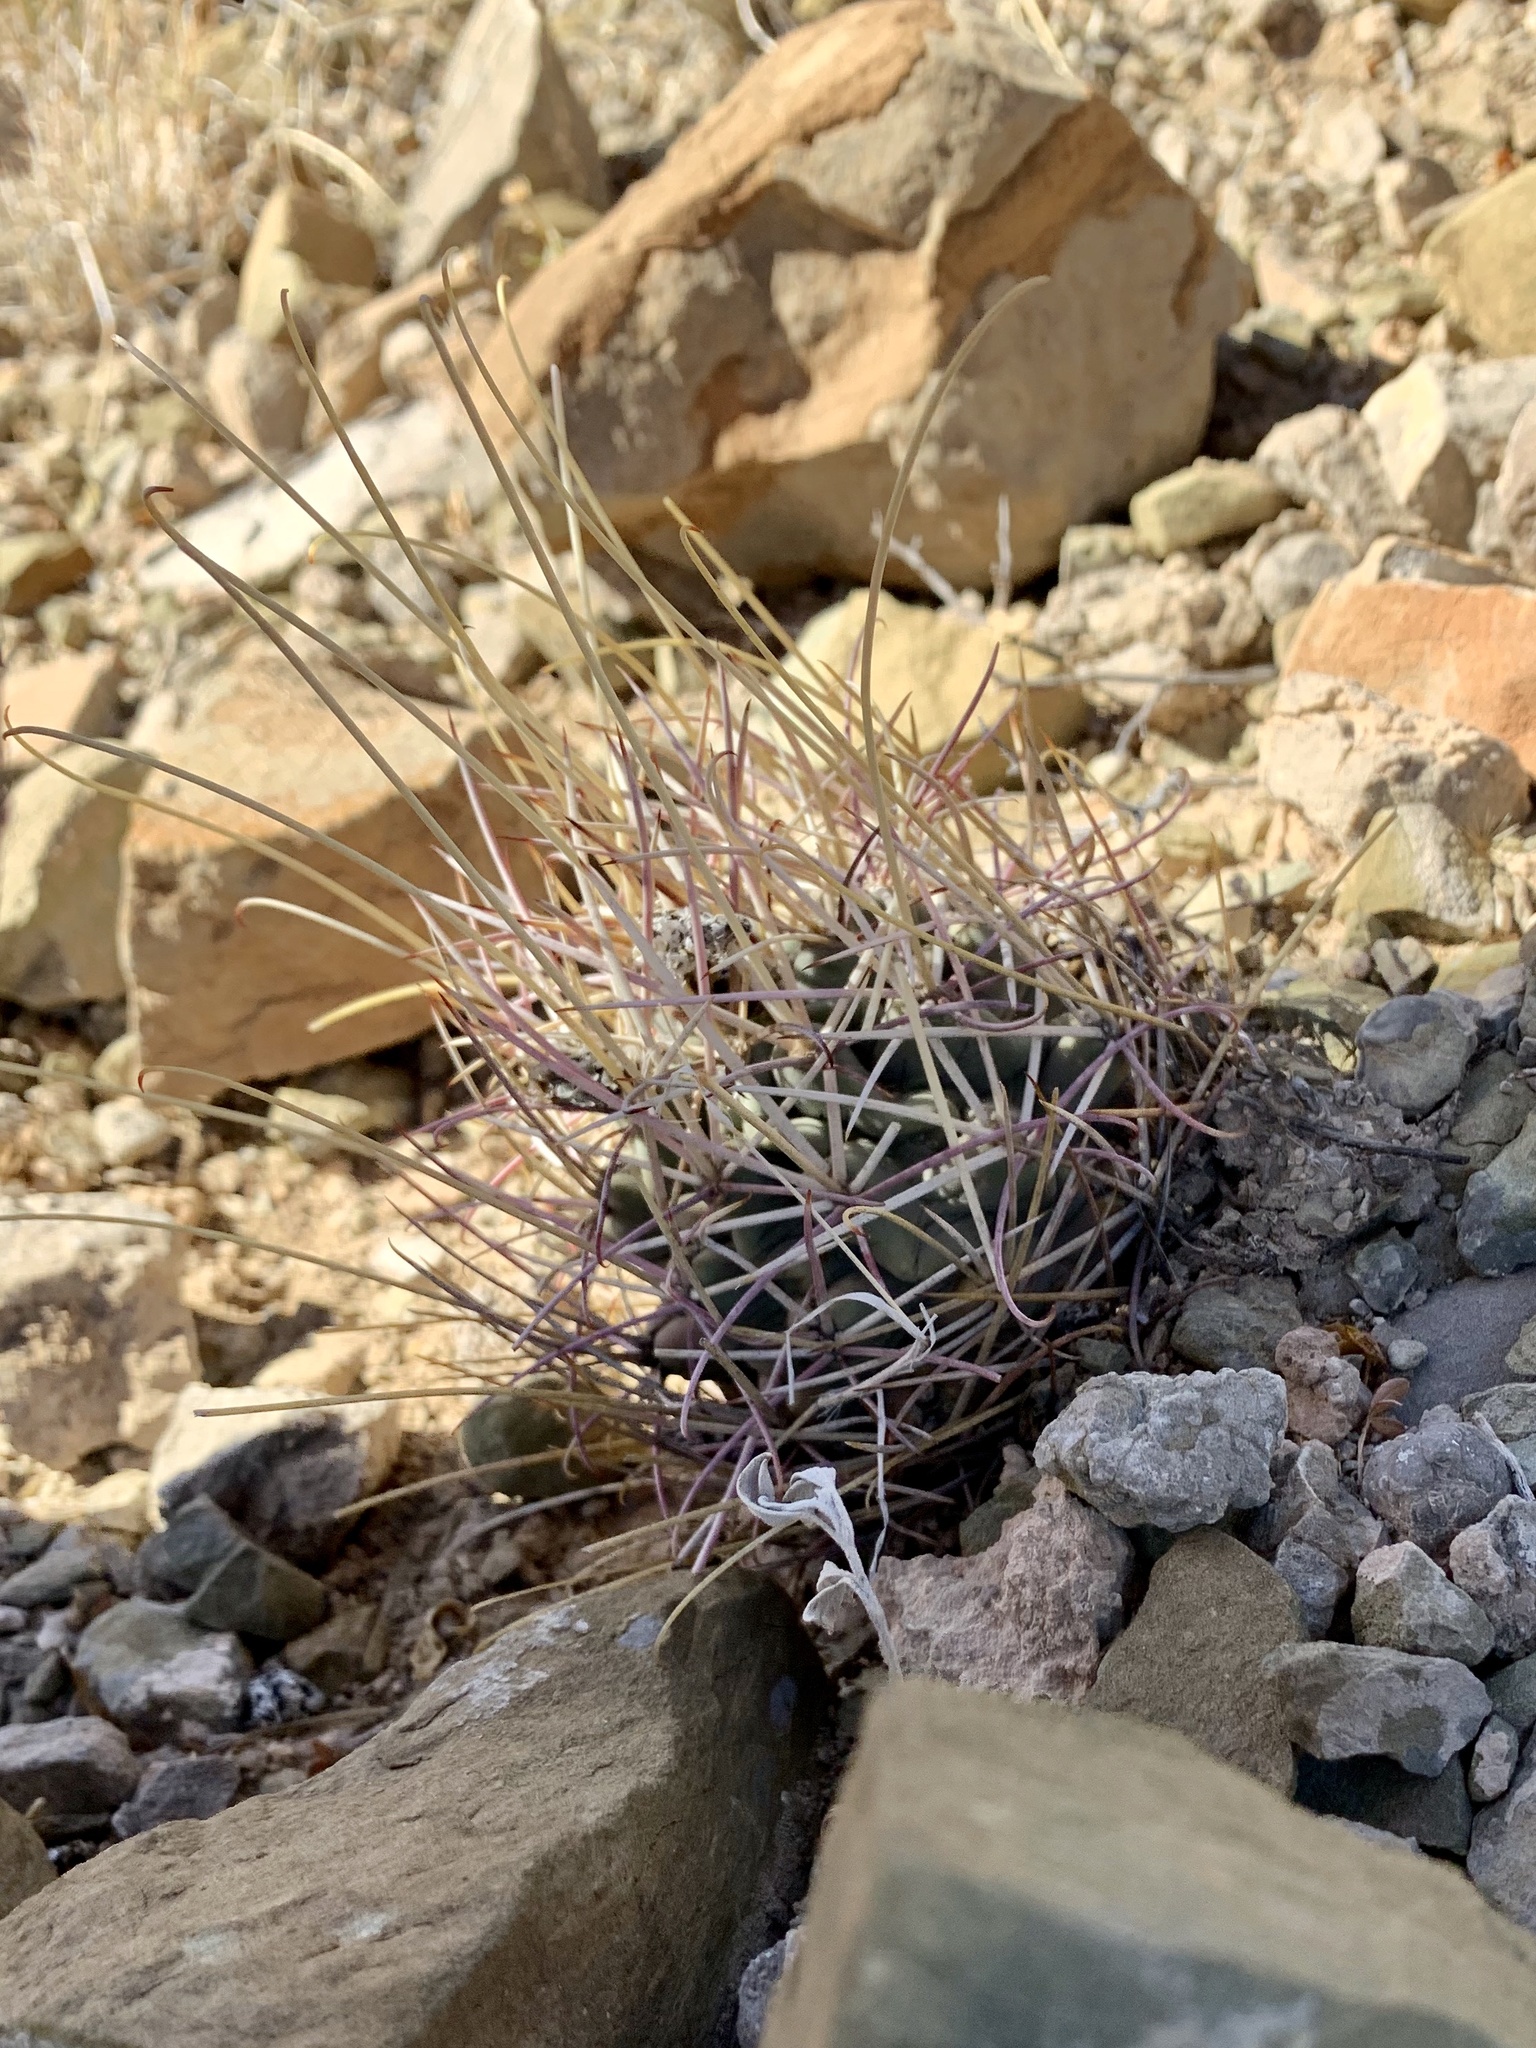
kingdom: Plantae
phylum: Tracheophyta
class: Magnoliopsida
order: Caryophyllales
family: Cactaceae
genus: Ferocactus
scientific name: Ferocactus uncinatus
